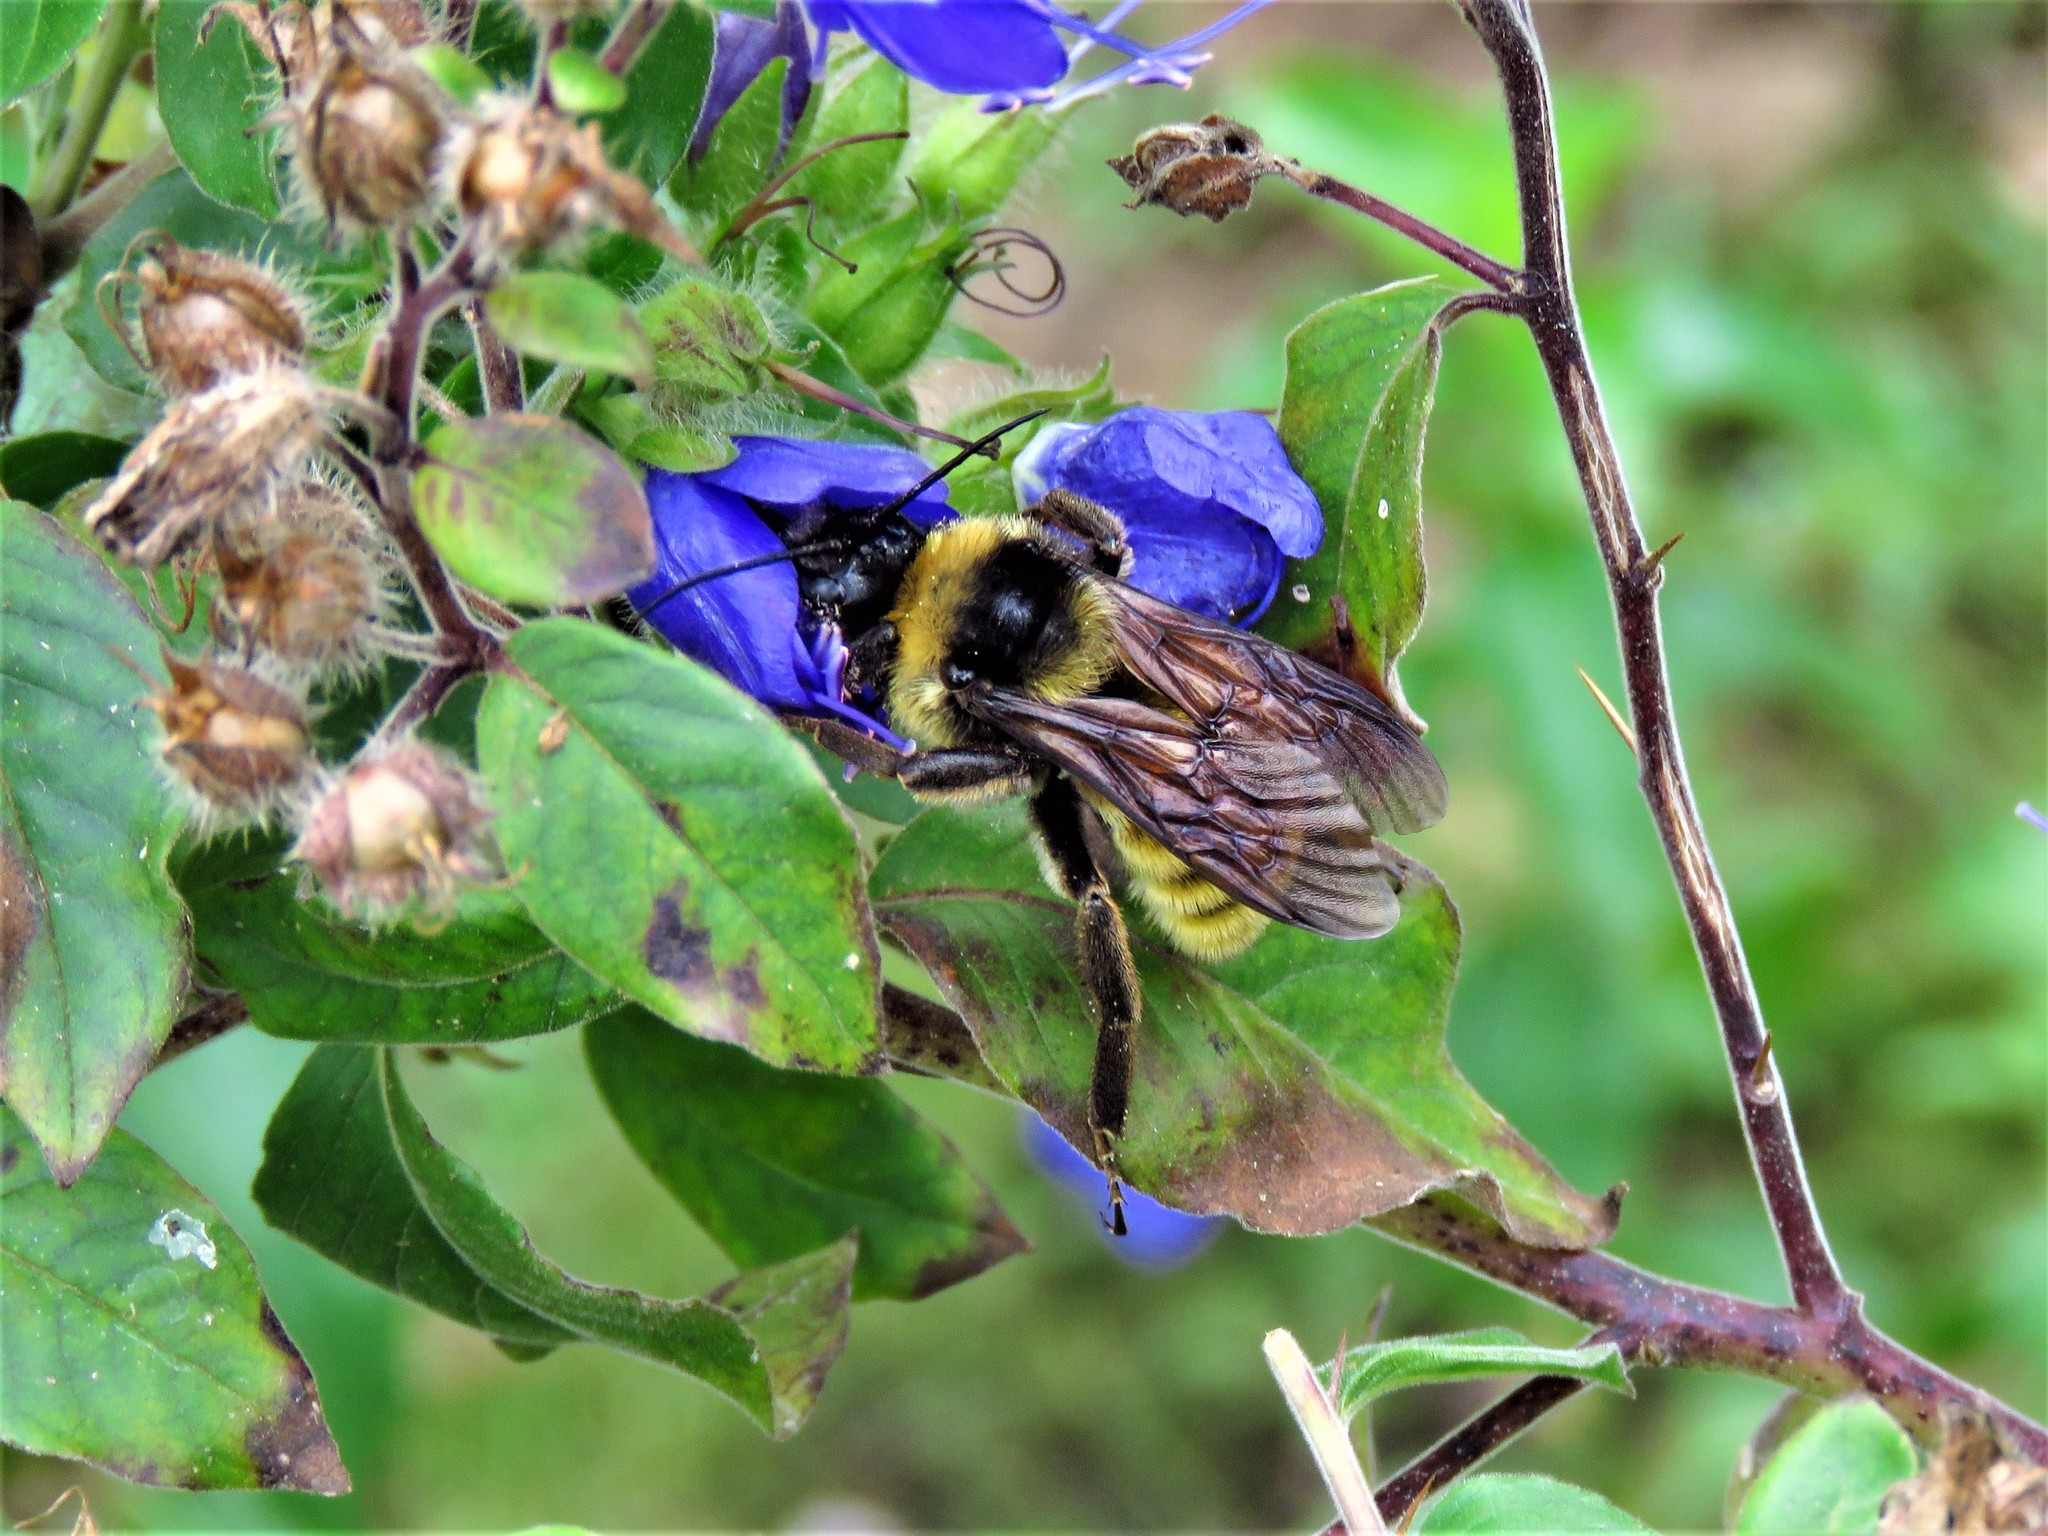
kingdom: Animalia
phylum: Arthropoda
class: Insecta
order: Hymenoptera
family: Apidae
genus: Bombus
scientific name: Bombus pensylvanicus
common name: Bumble bee
